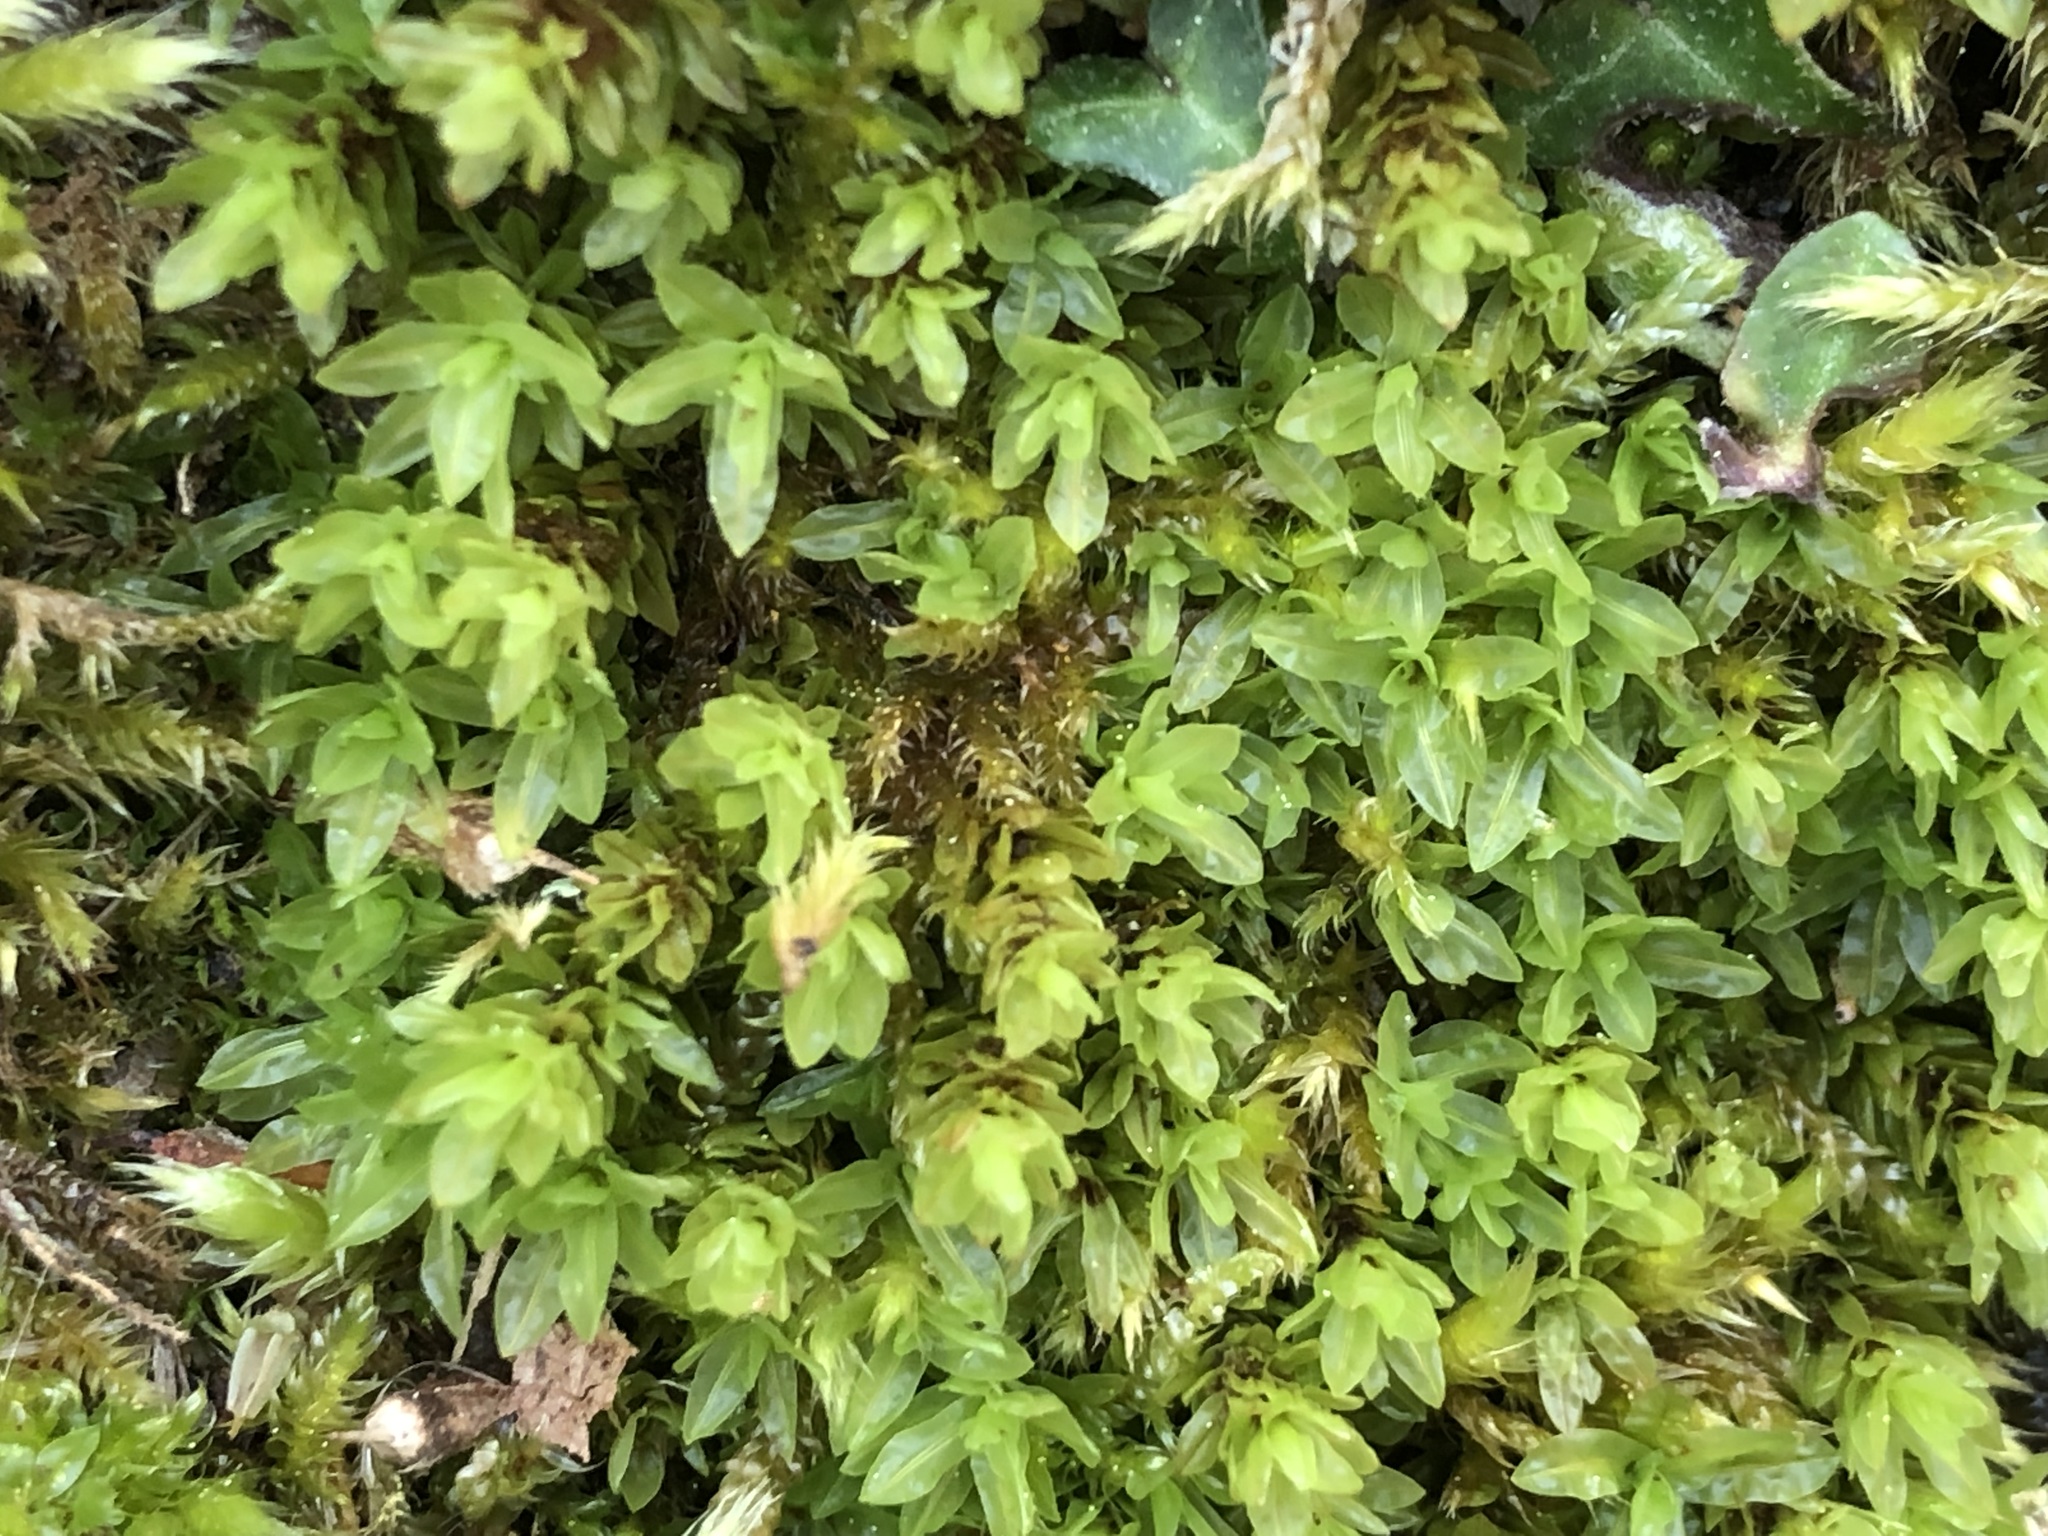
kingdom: Plantae
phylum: Bryophyta
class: Bryopsida
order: Encalyptales
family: Encalyptaceae
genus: Encalypta
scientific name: Encalypta streptocarpa
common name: Spiral extinguisher-moss
